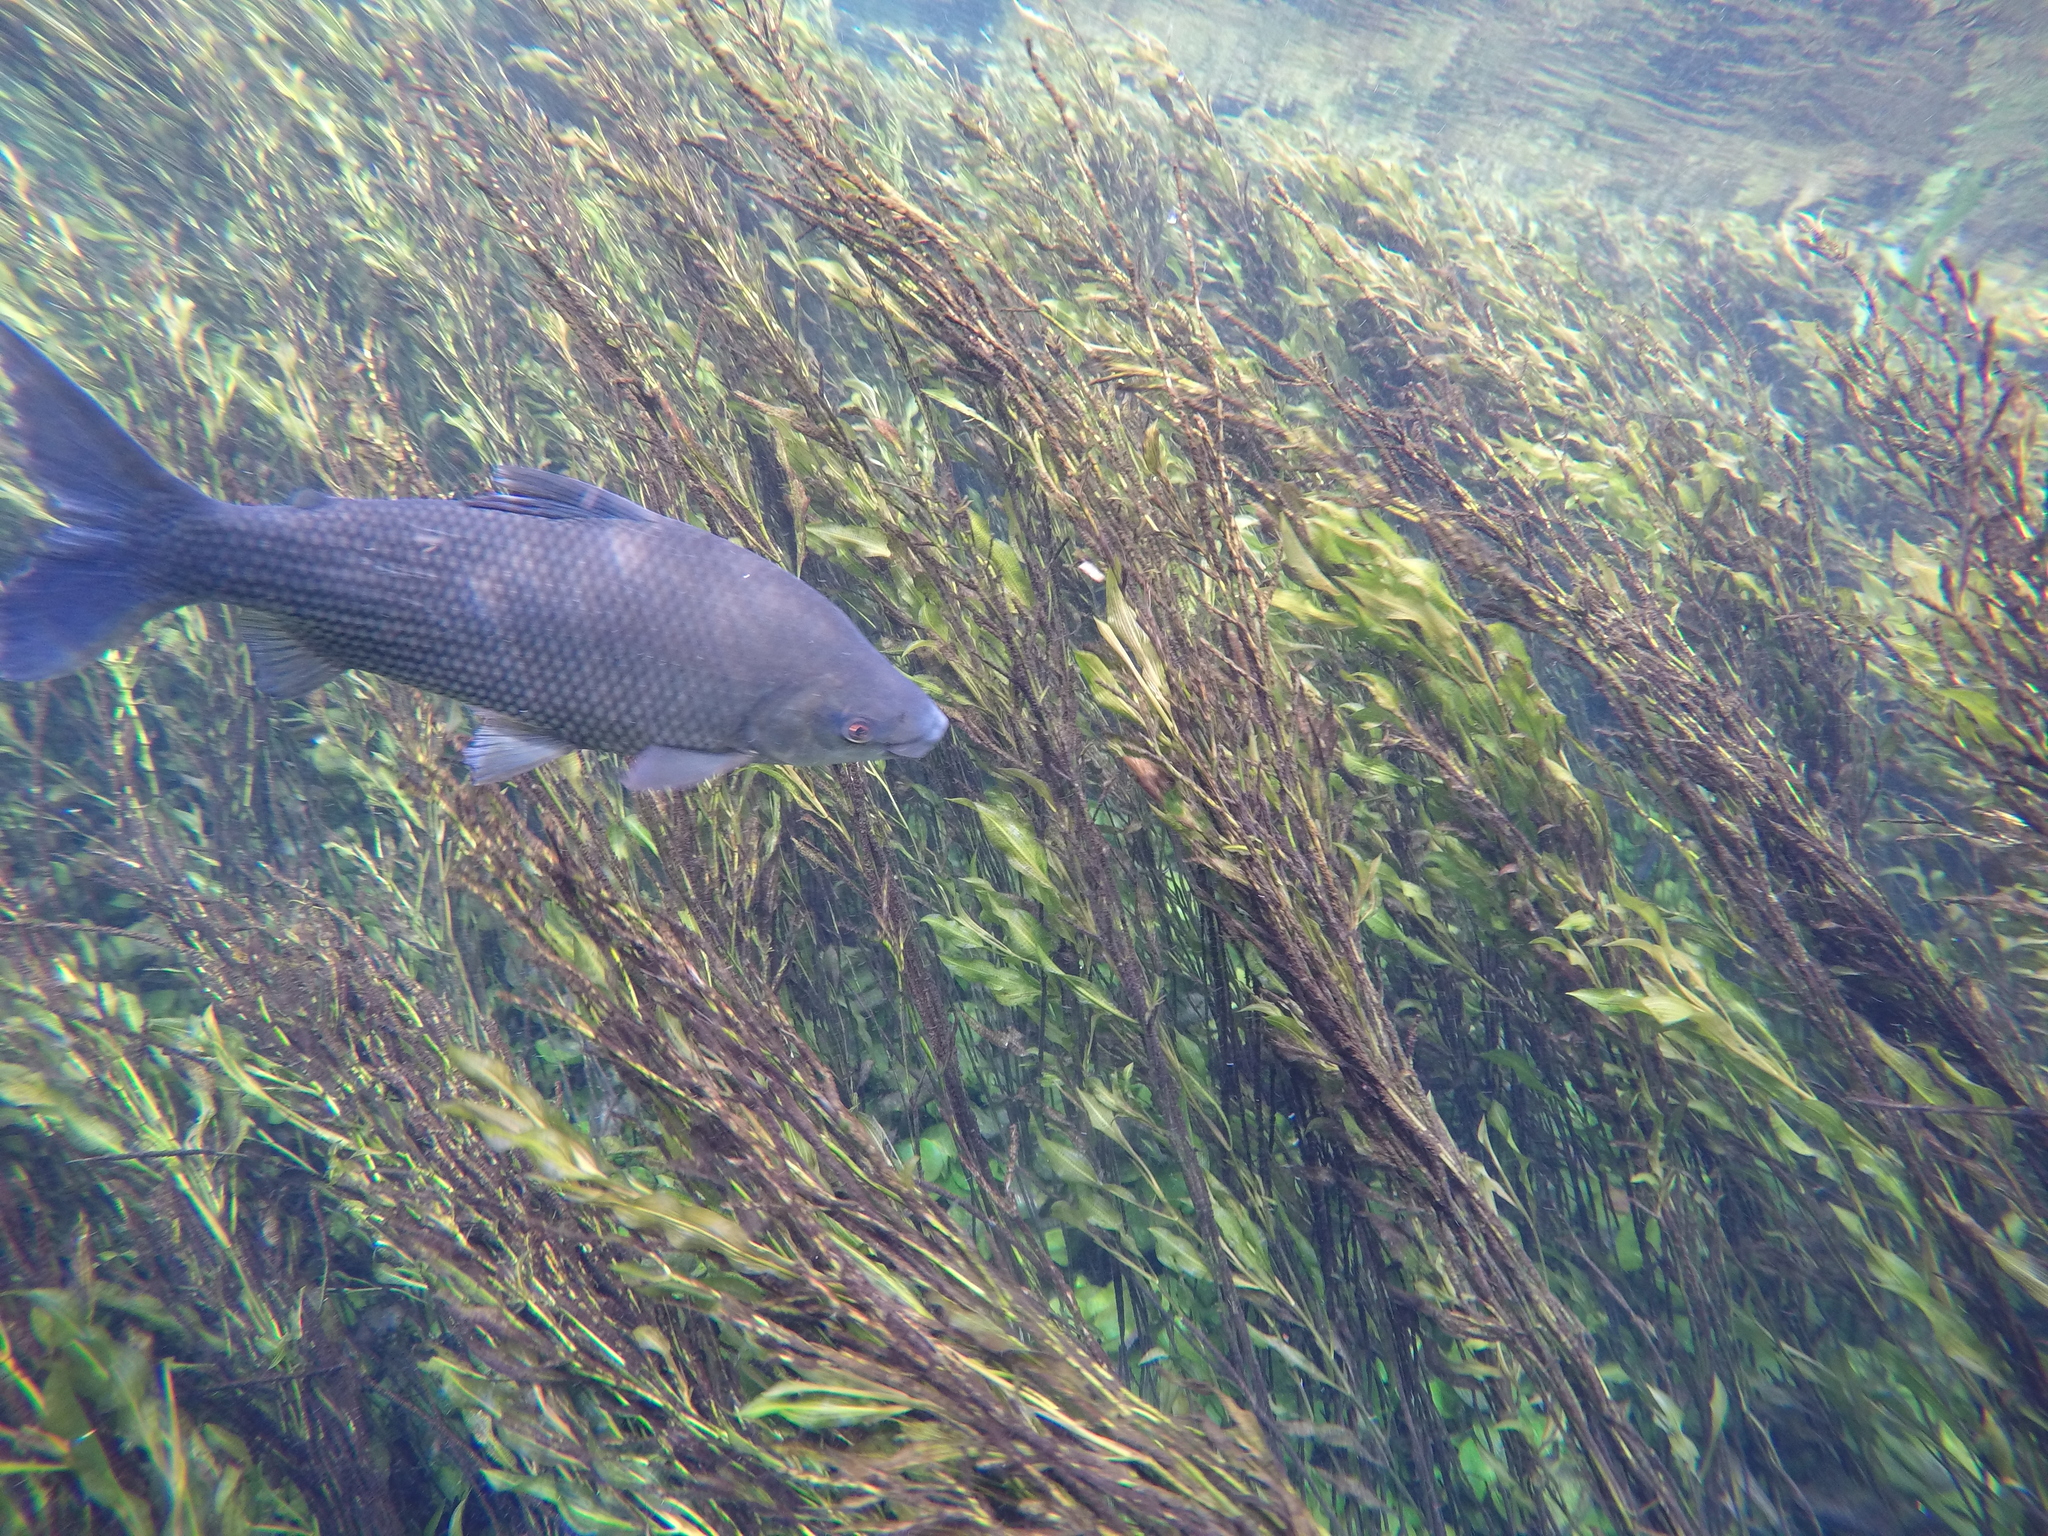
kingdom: Animalia
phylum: Chordata
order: Characiformes
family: Prochilodontidae
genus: Prochilodus
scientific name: Prochilodus lineatus
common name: Curimbata
